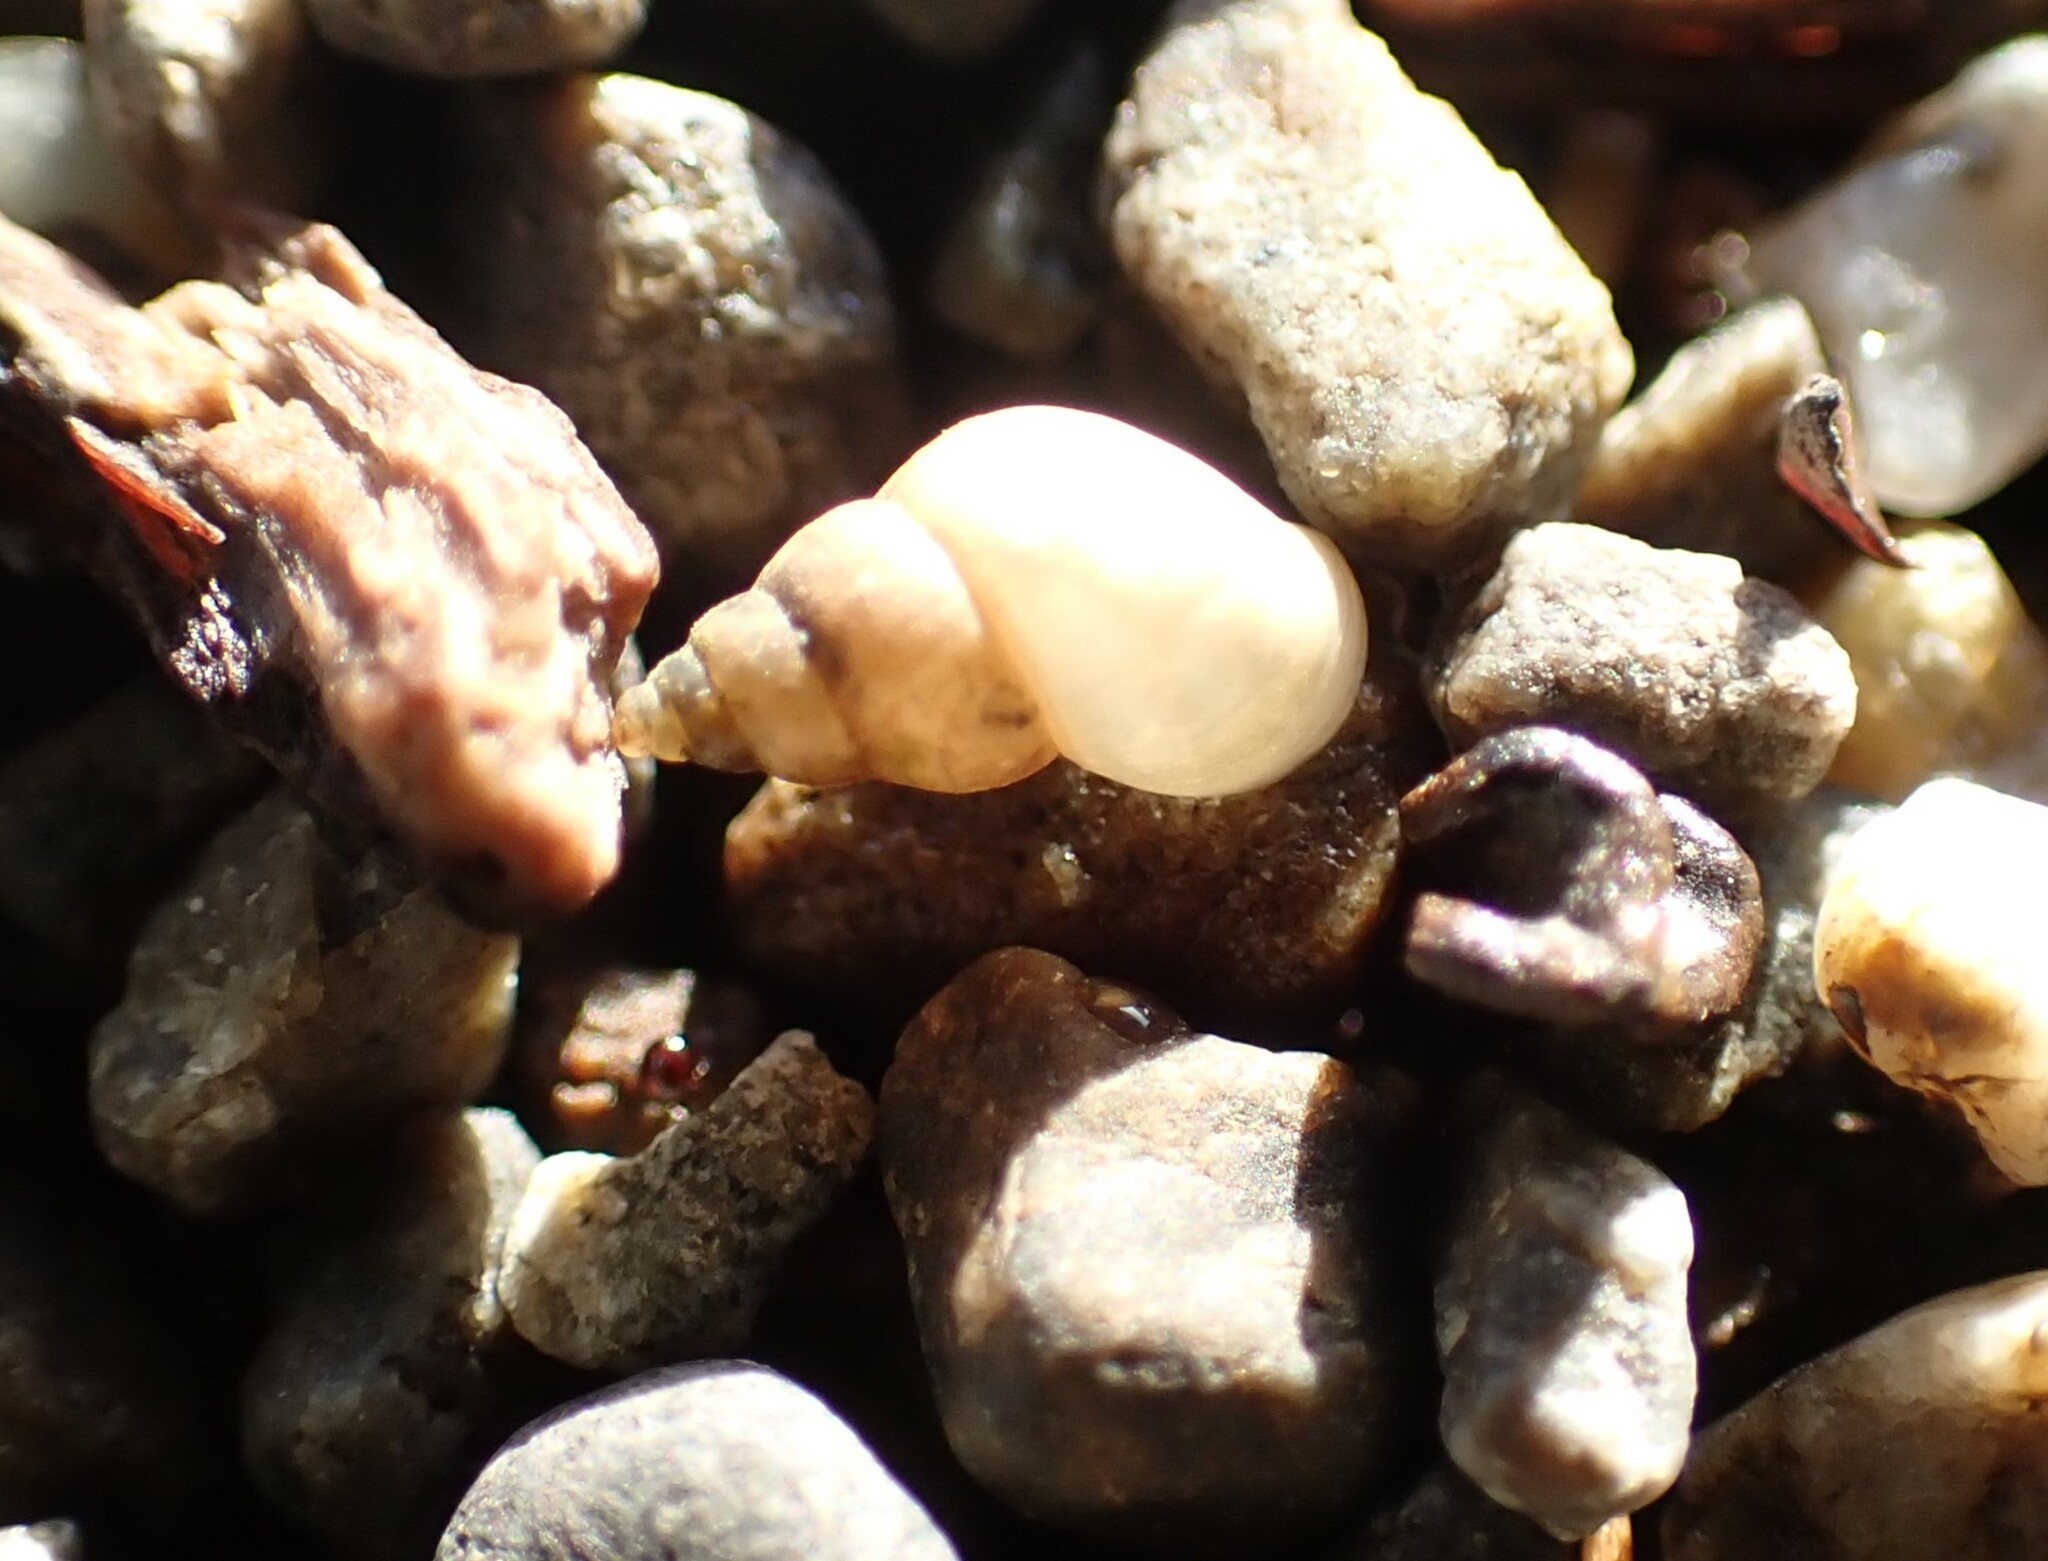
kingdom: Animalia
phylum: Mollusca
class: Gastropoda
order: Littorinimorpha
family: Tateidae
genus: Potamopyrgus
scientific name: Potamopyrgus antipodarum
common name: Jenkins' spire snail
